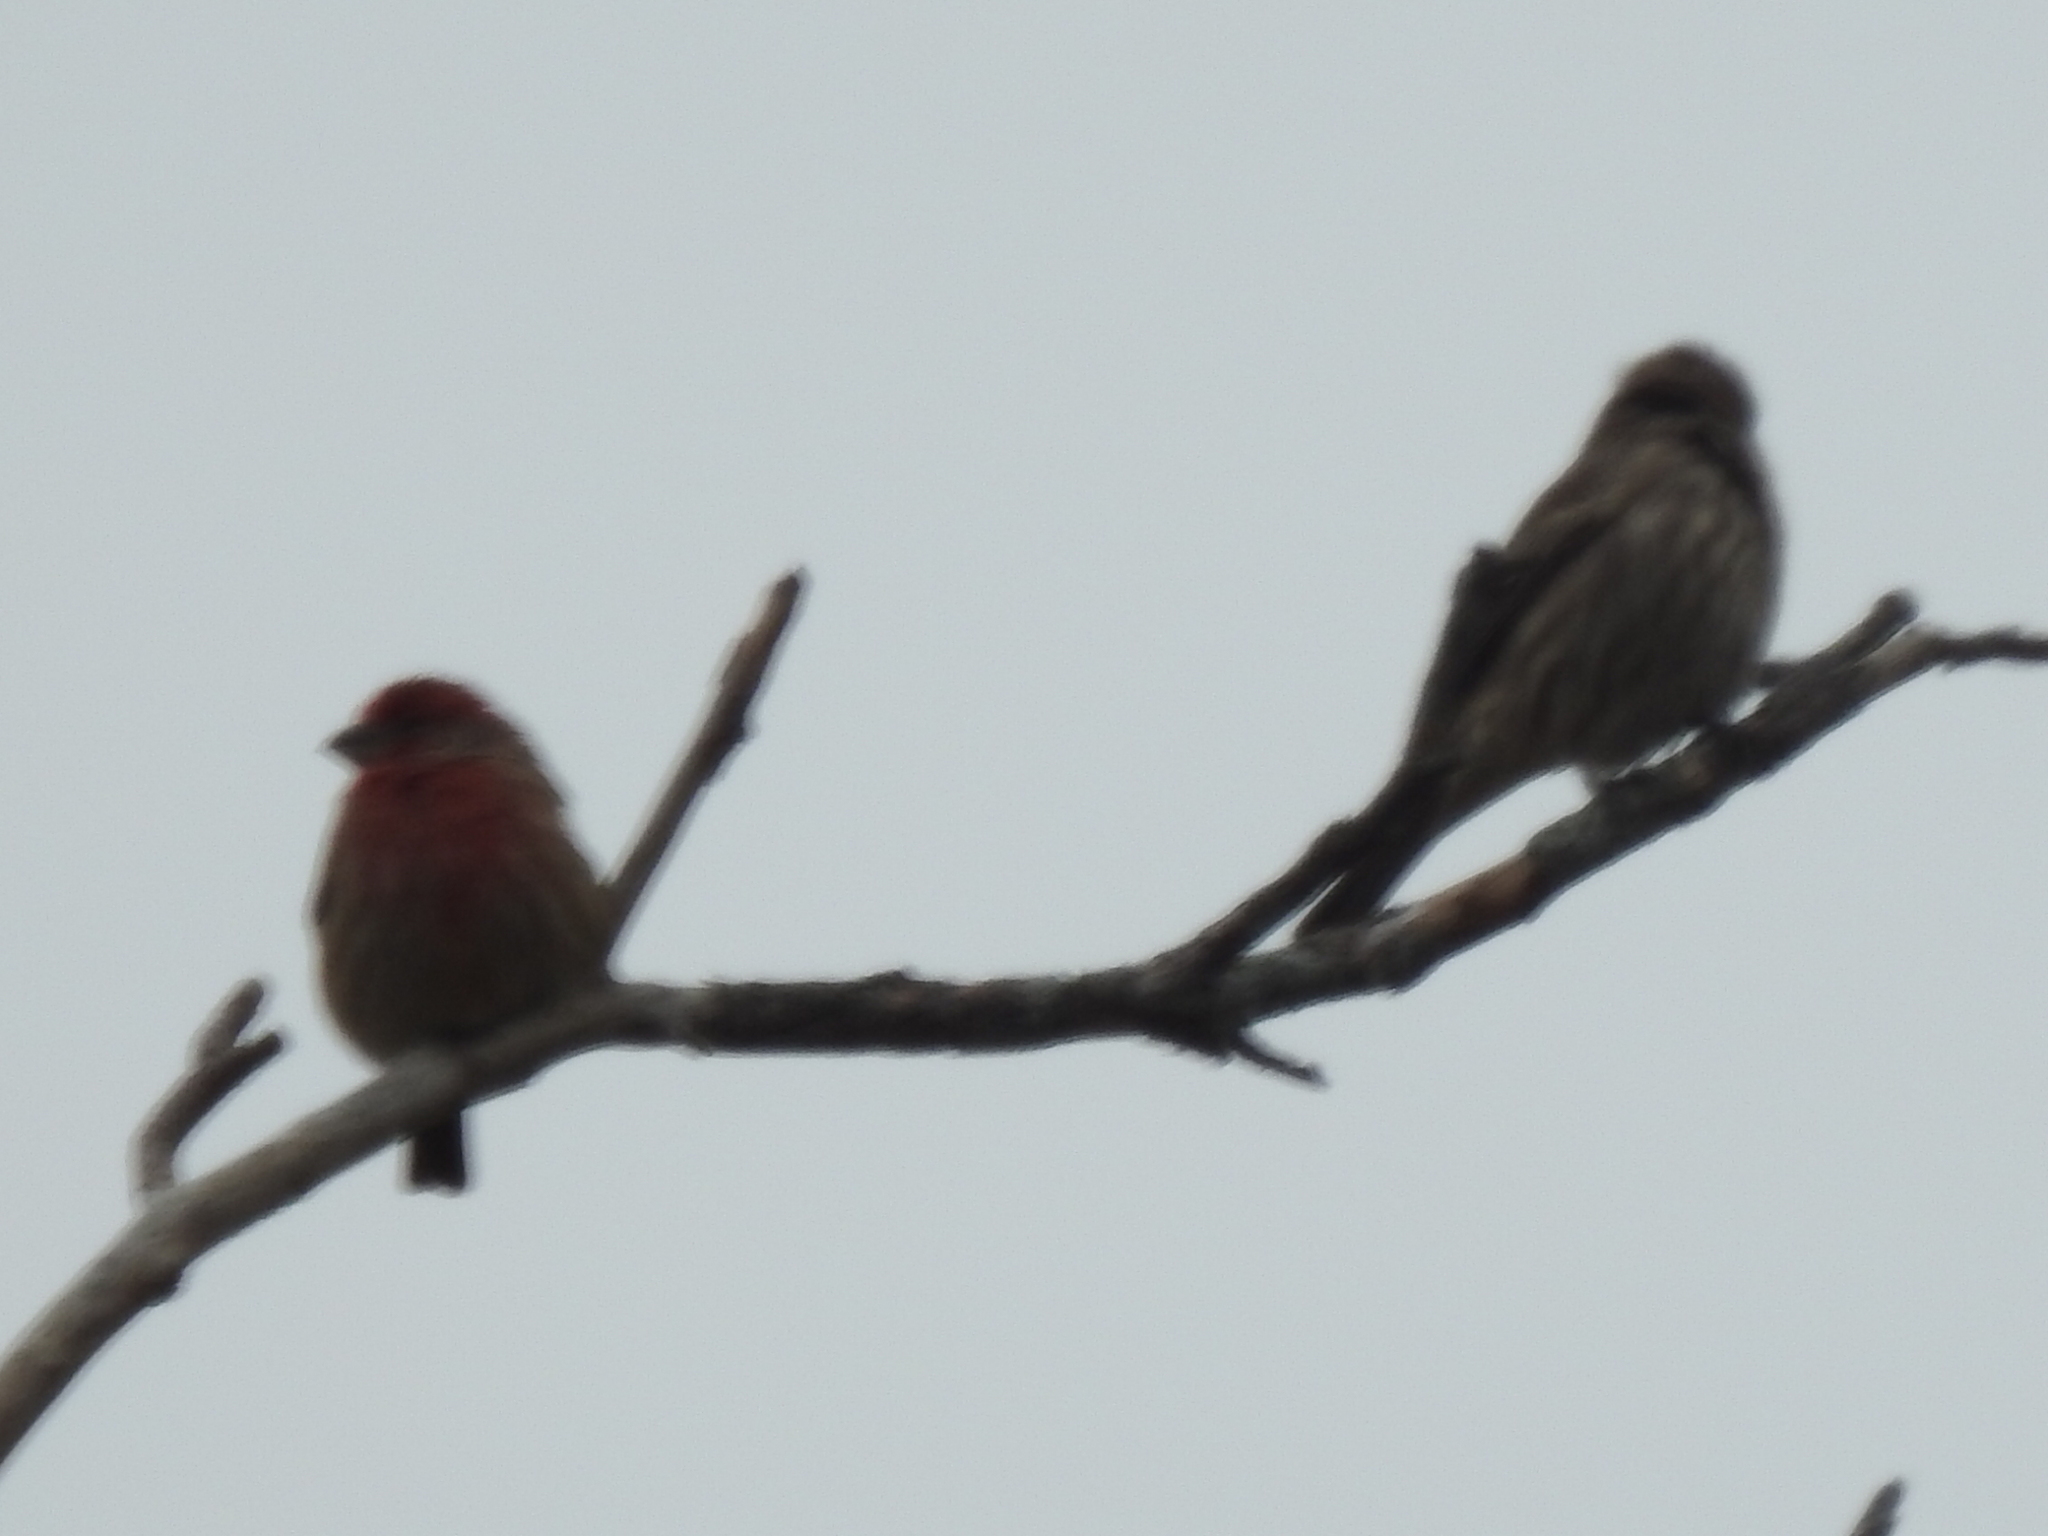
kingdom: Animalia
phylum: Chordata
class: Aves
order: Passeriformes
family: Fringillidae
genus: Haemorhous
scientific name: Haemorhous mexicanus
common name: House finch
